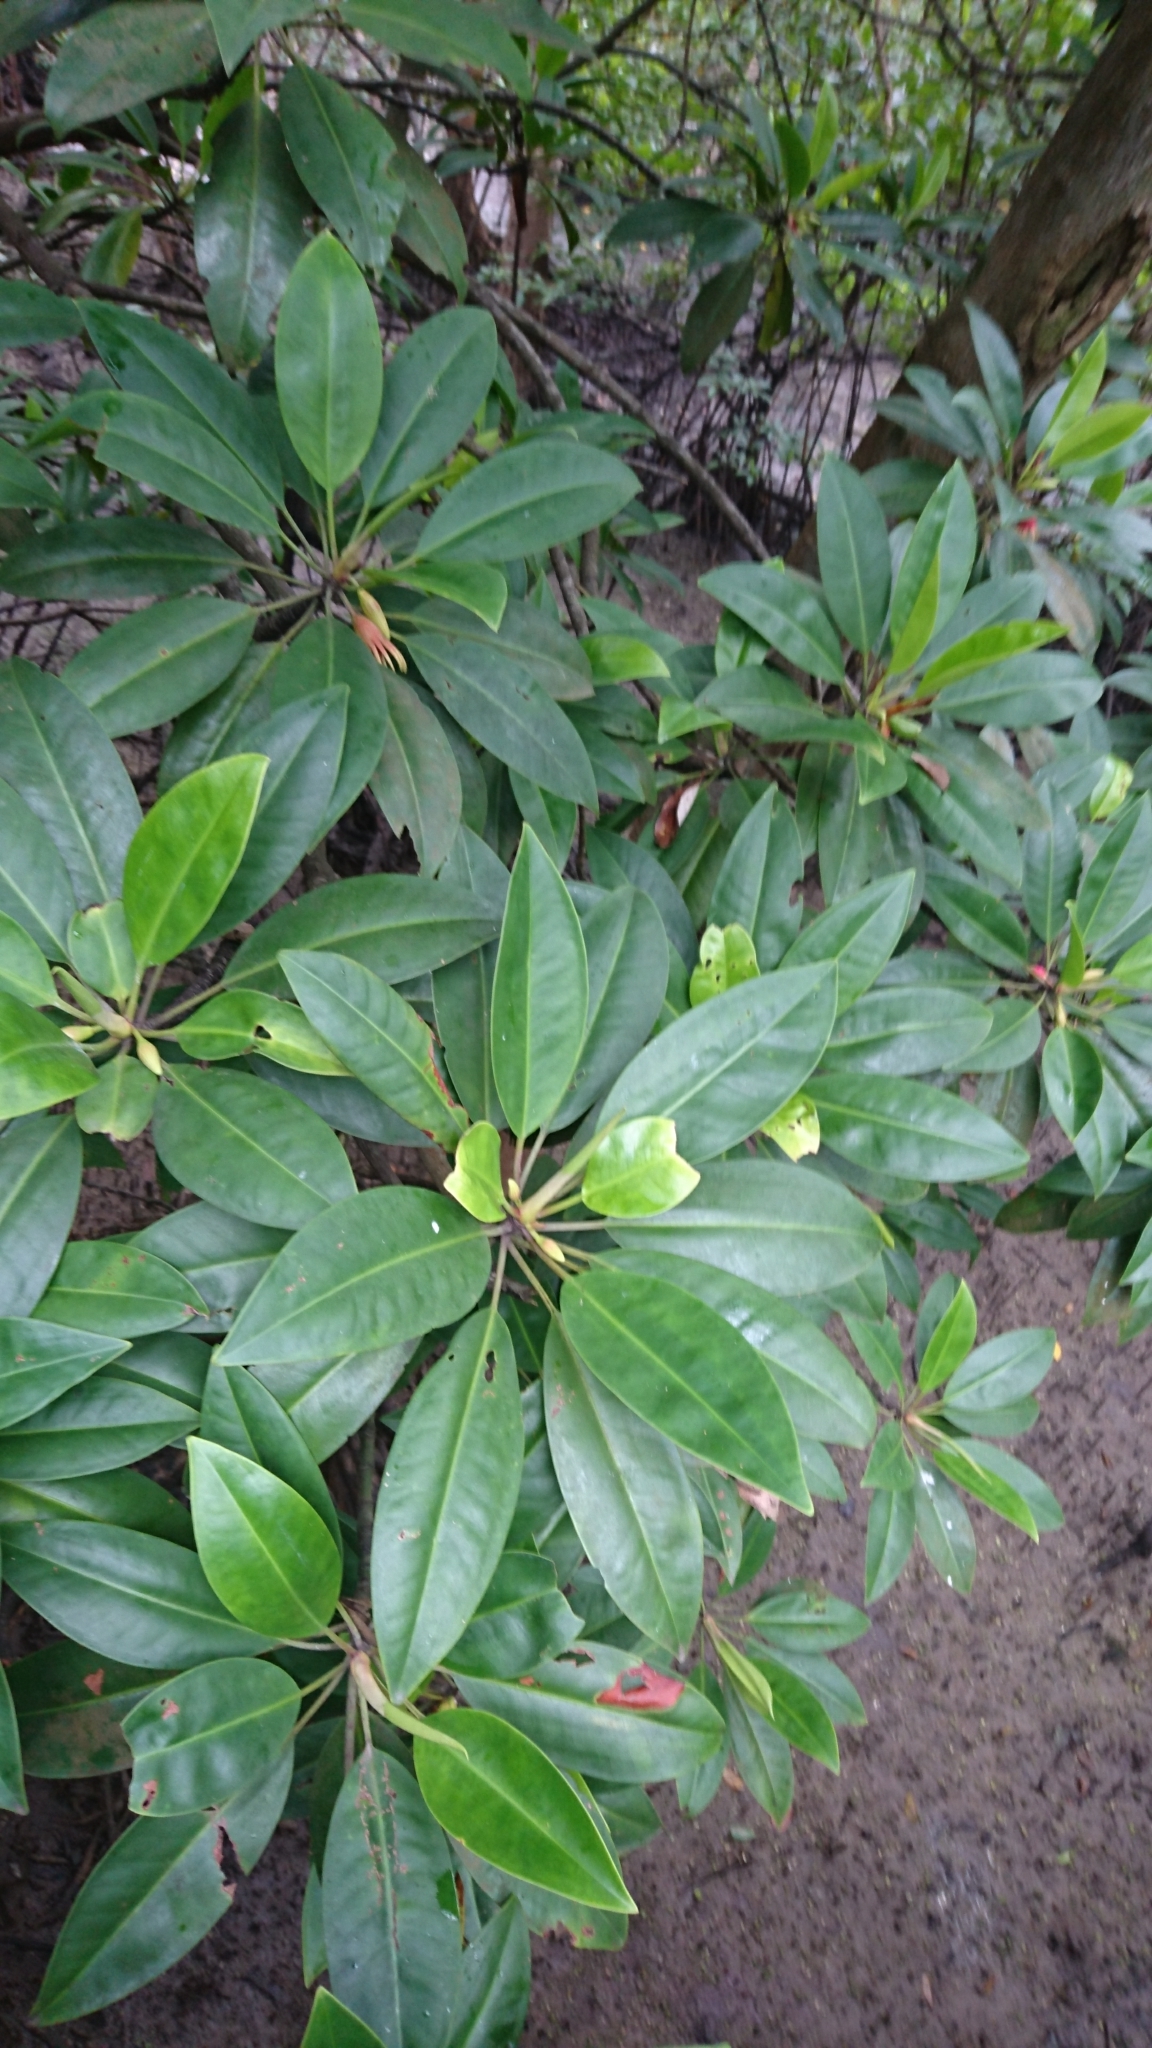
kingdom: Plantae
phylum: Tracheophyta
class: Magnoliopsida
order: Malpighiales
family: Rhizophoraceae
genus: Bruguiera
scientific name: Bruguiera gymnorhiza
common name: Oriental mangrove
